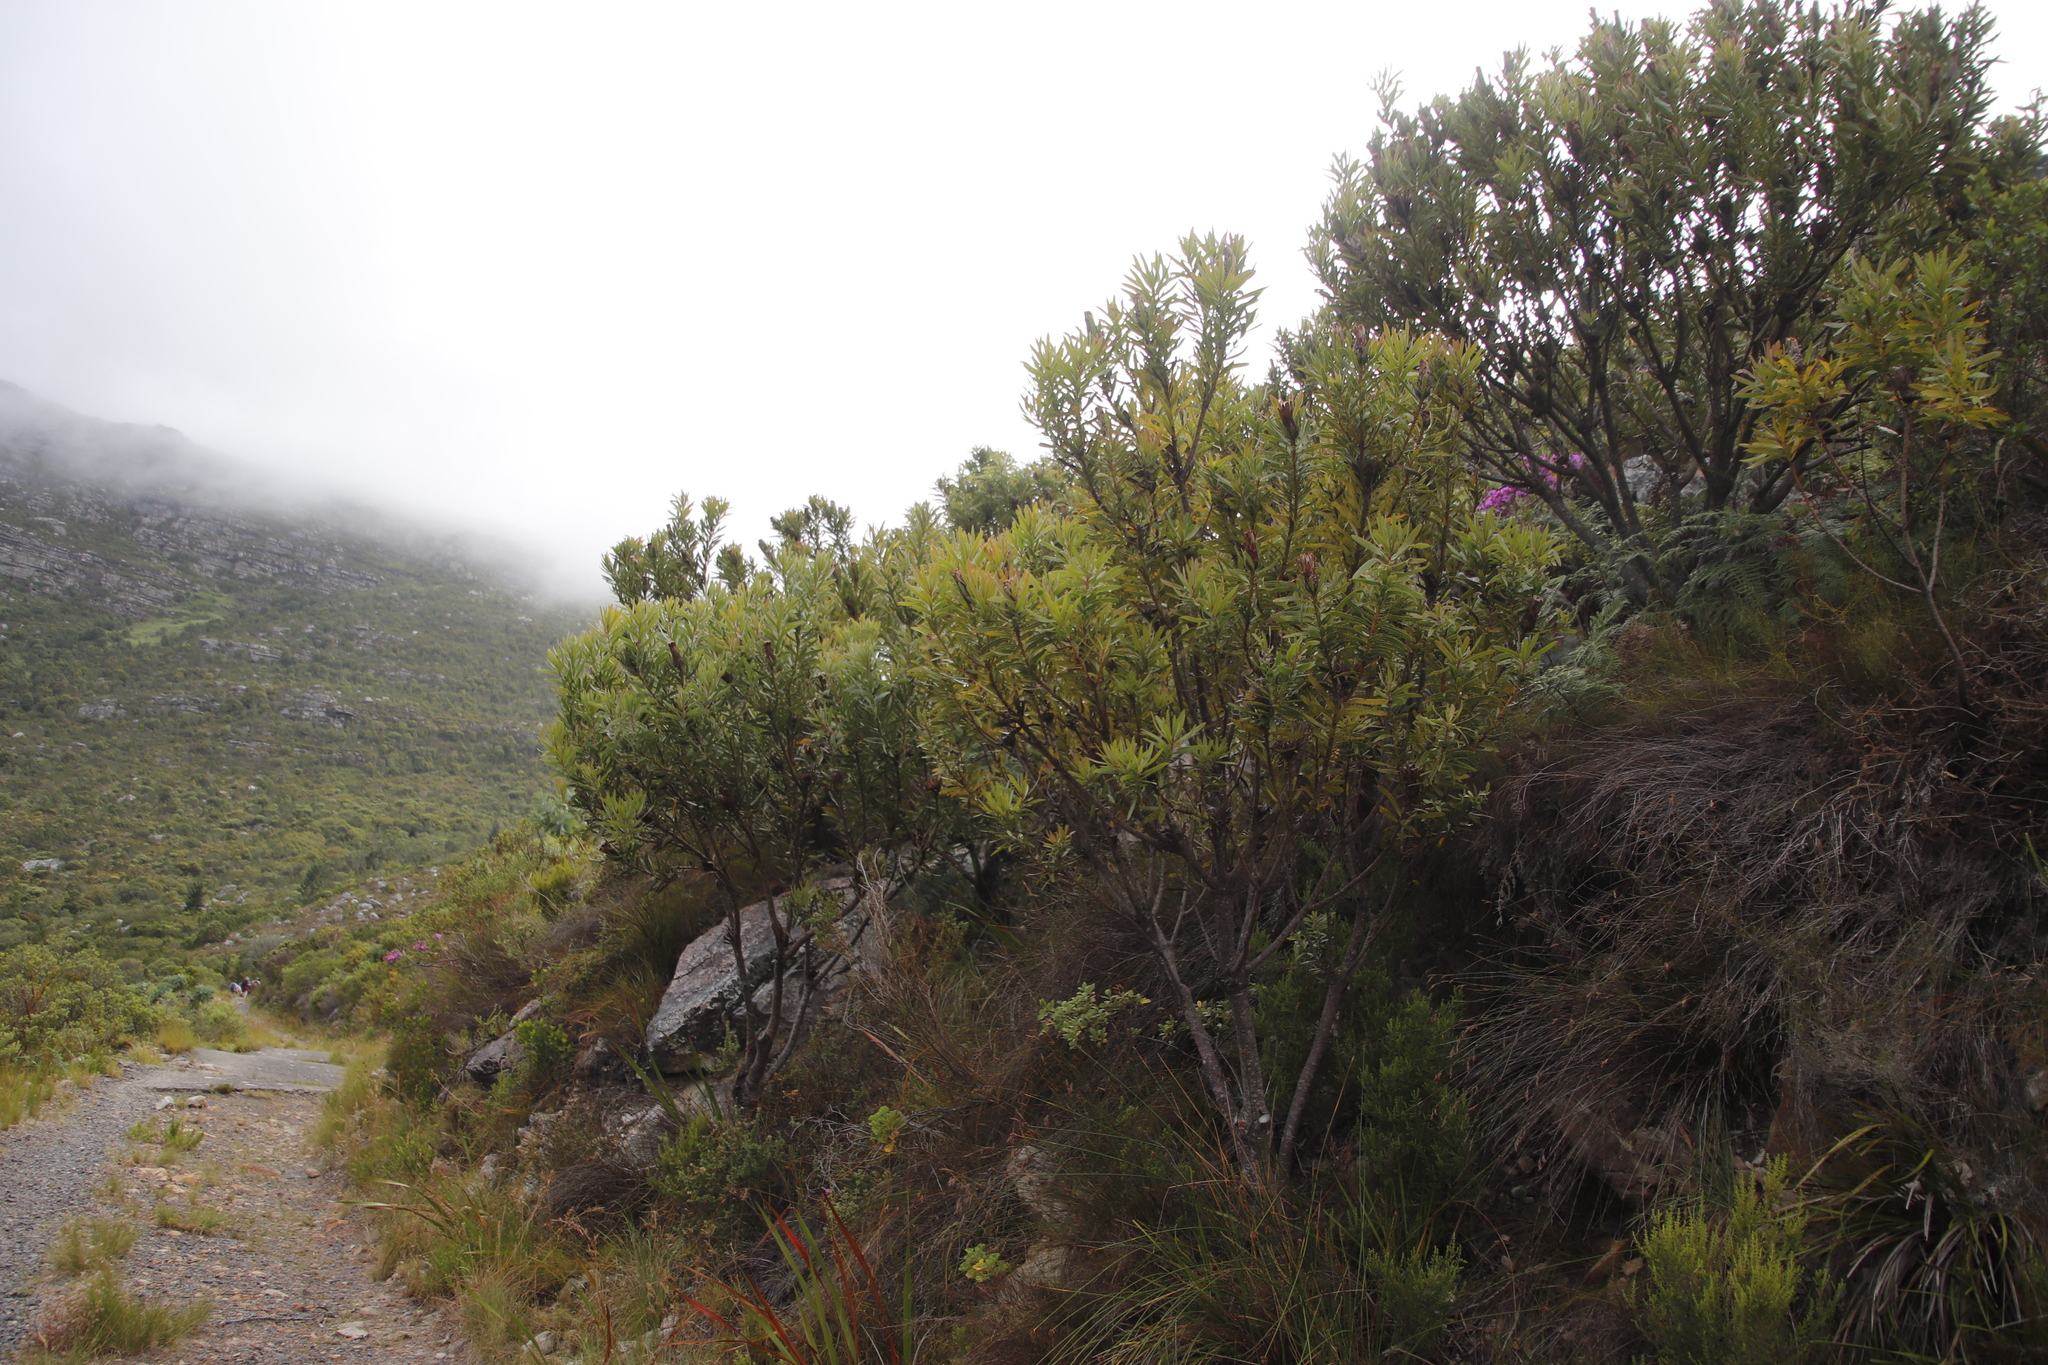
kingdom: Plantae
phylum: Tracheophyta
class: Magnoliopsida
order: Proteales
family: Proteaceae
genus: Protea
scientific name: Protea lepidocarpodendron
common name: Black-bearded protea
